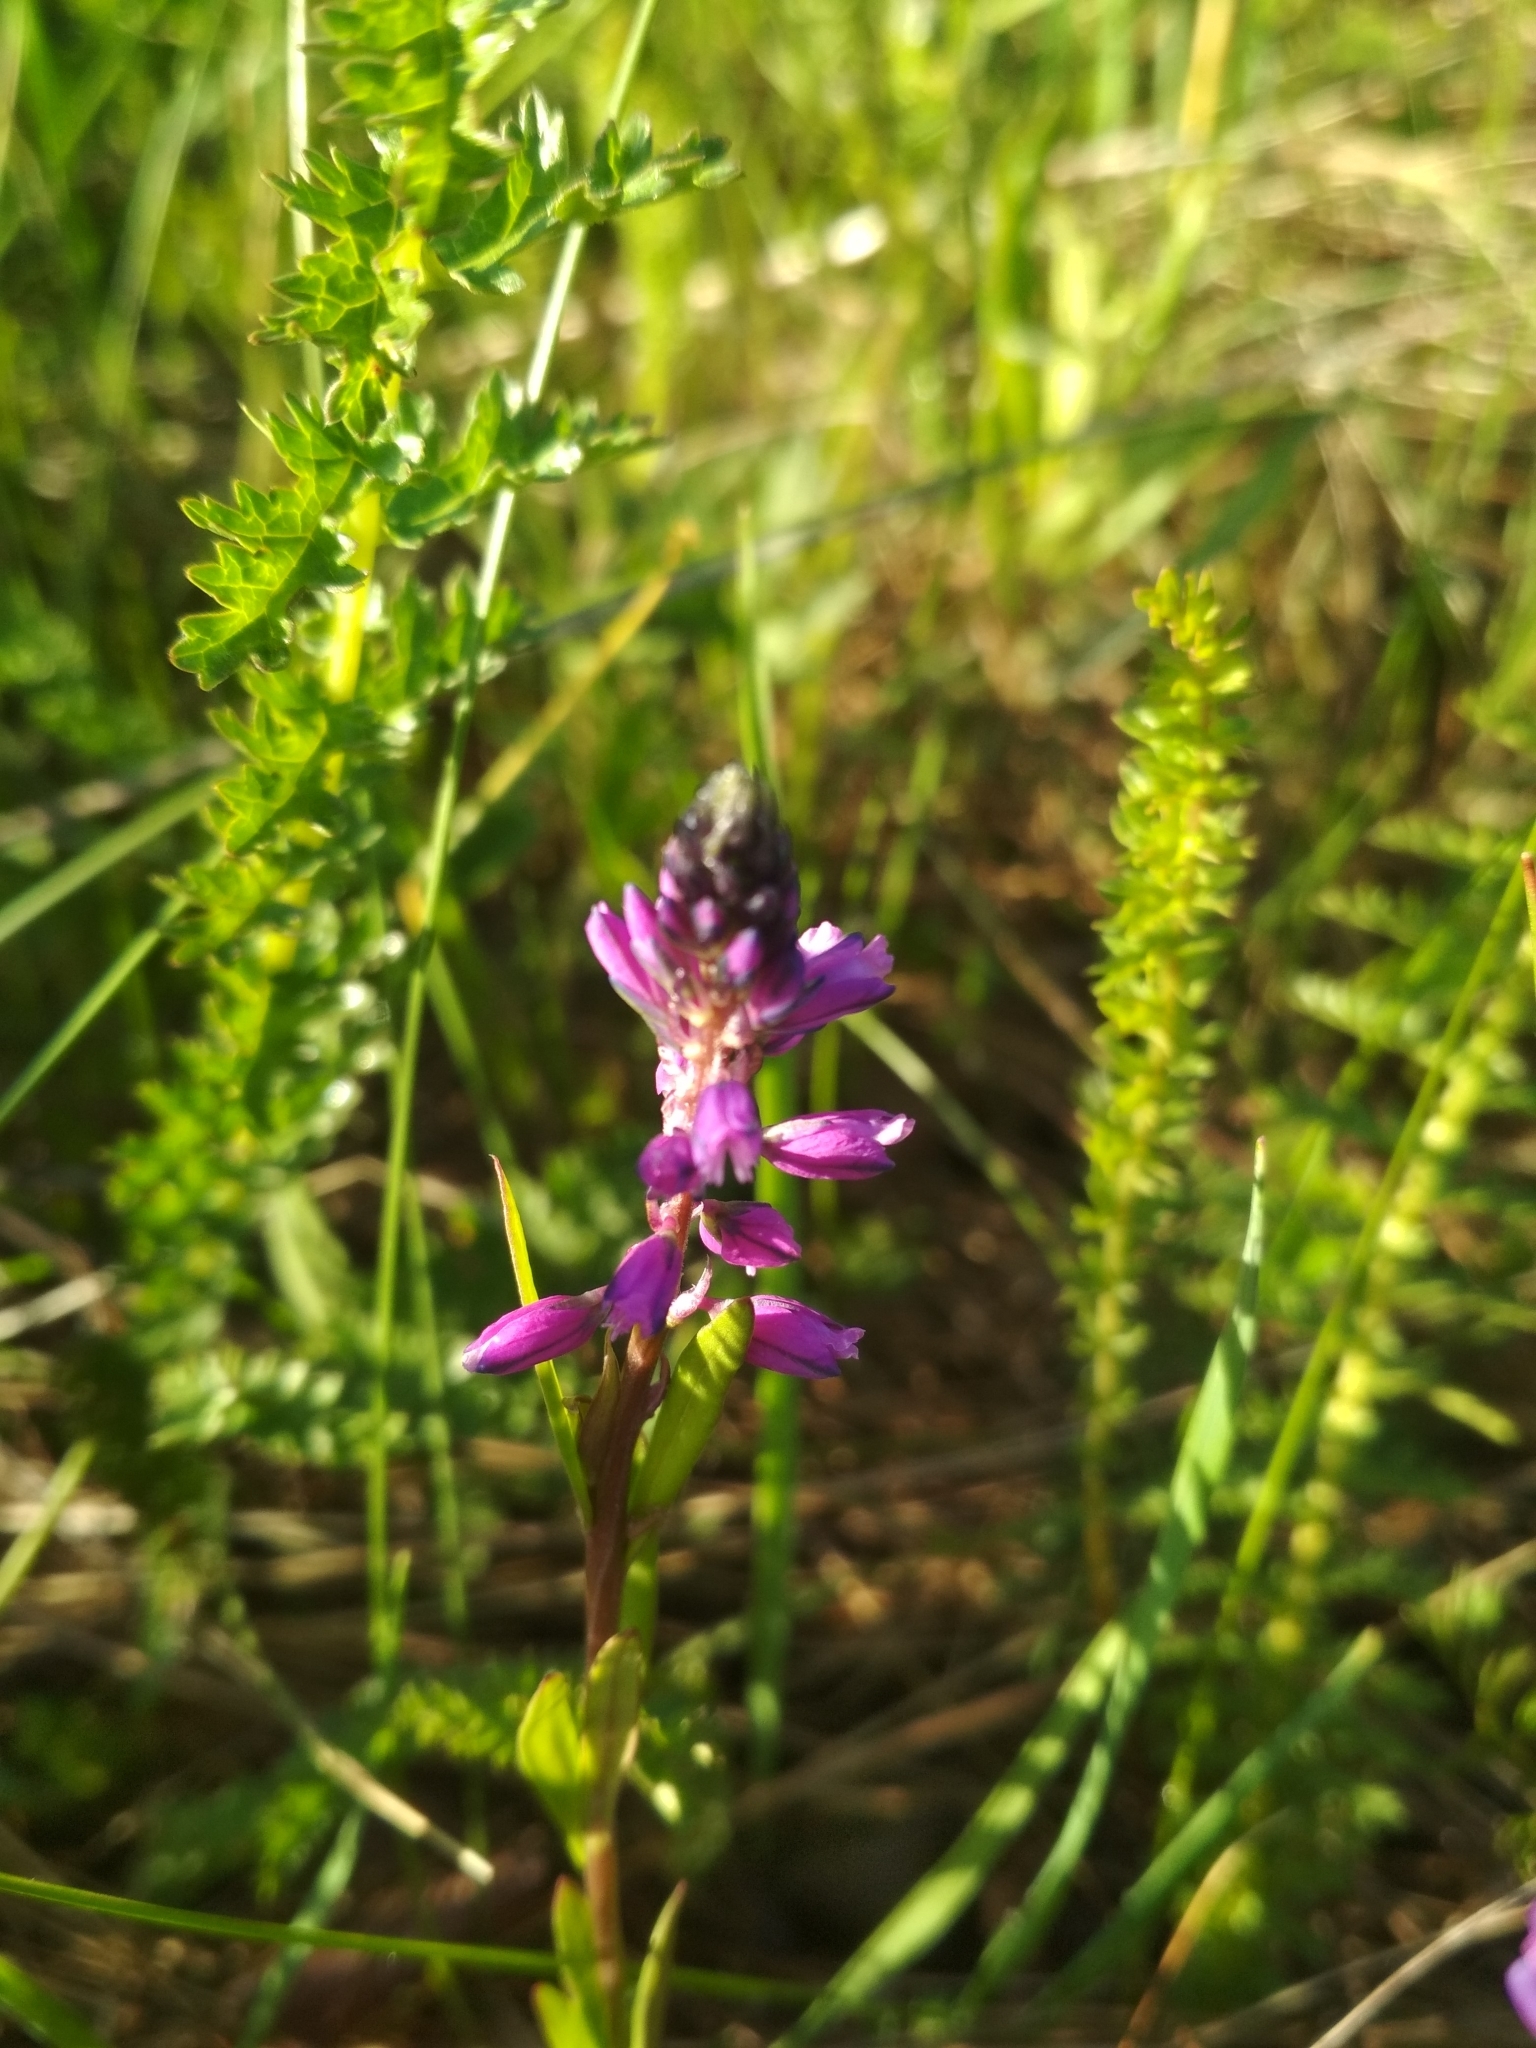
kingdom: Plantae
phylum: Tracheophyta
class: Magnoliopsida
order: Fabales
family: Polygalaceae
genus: Polygala
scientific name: Polygala comosa
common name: Tufted milkwort
